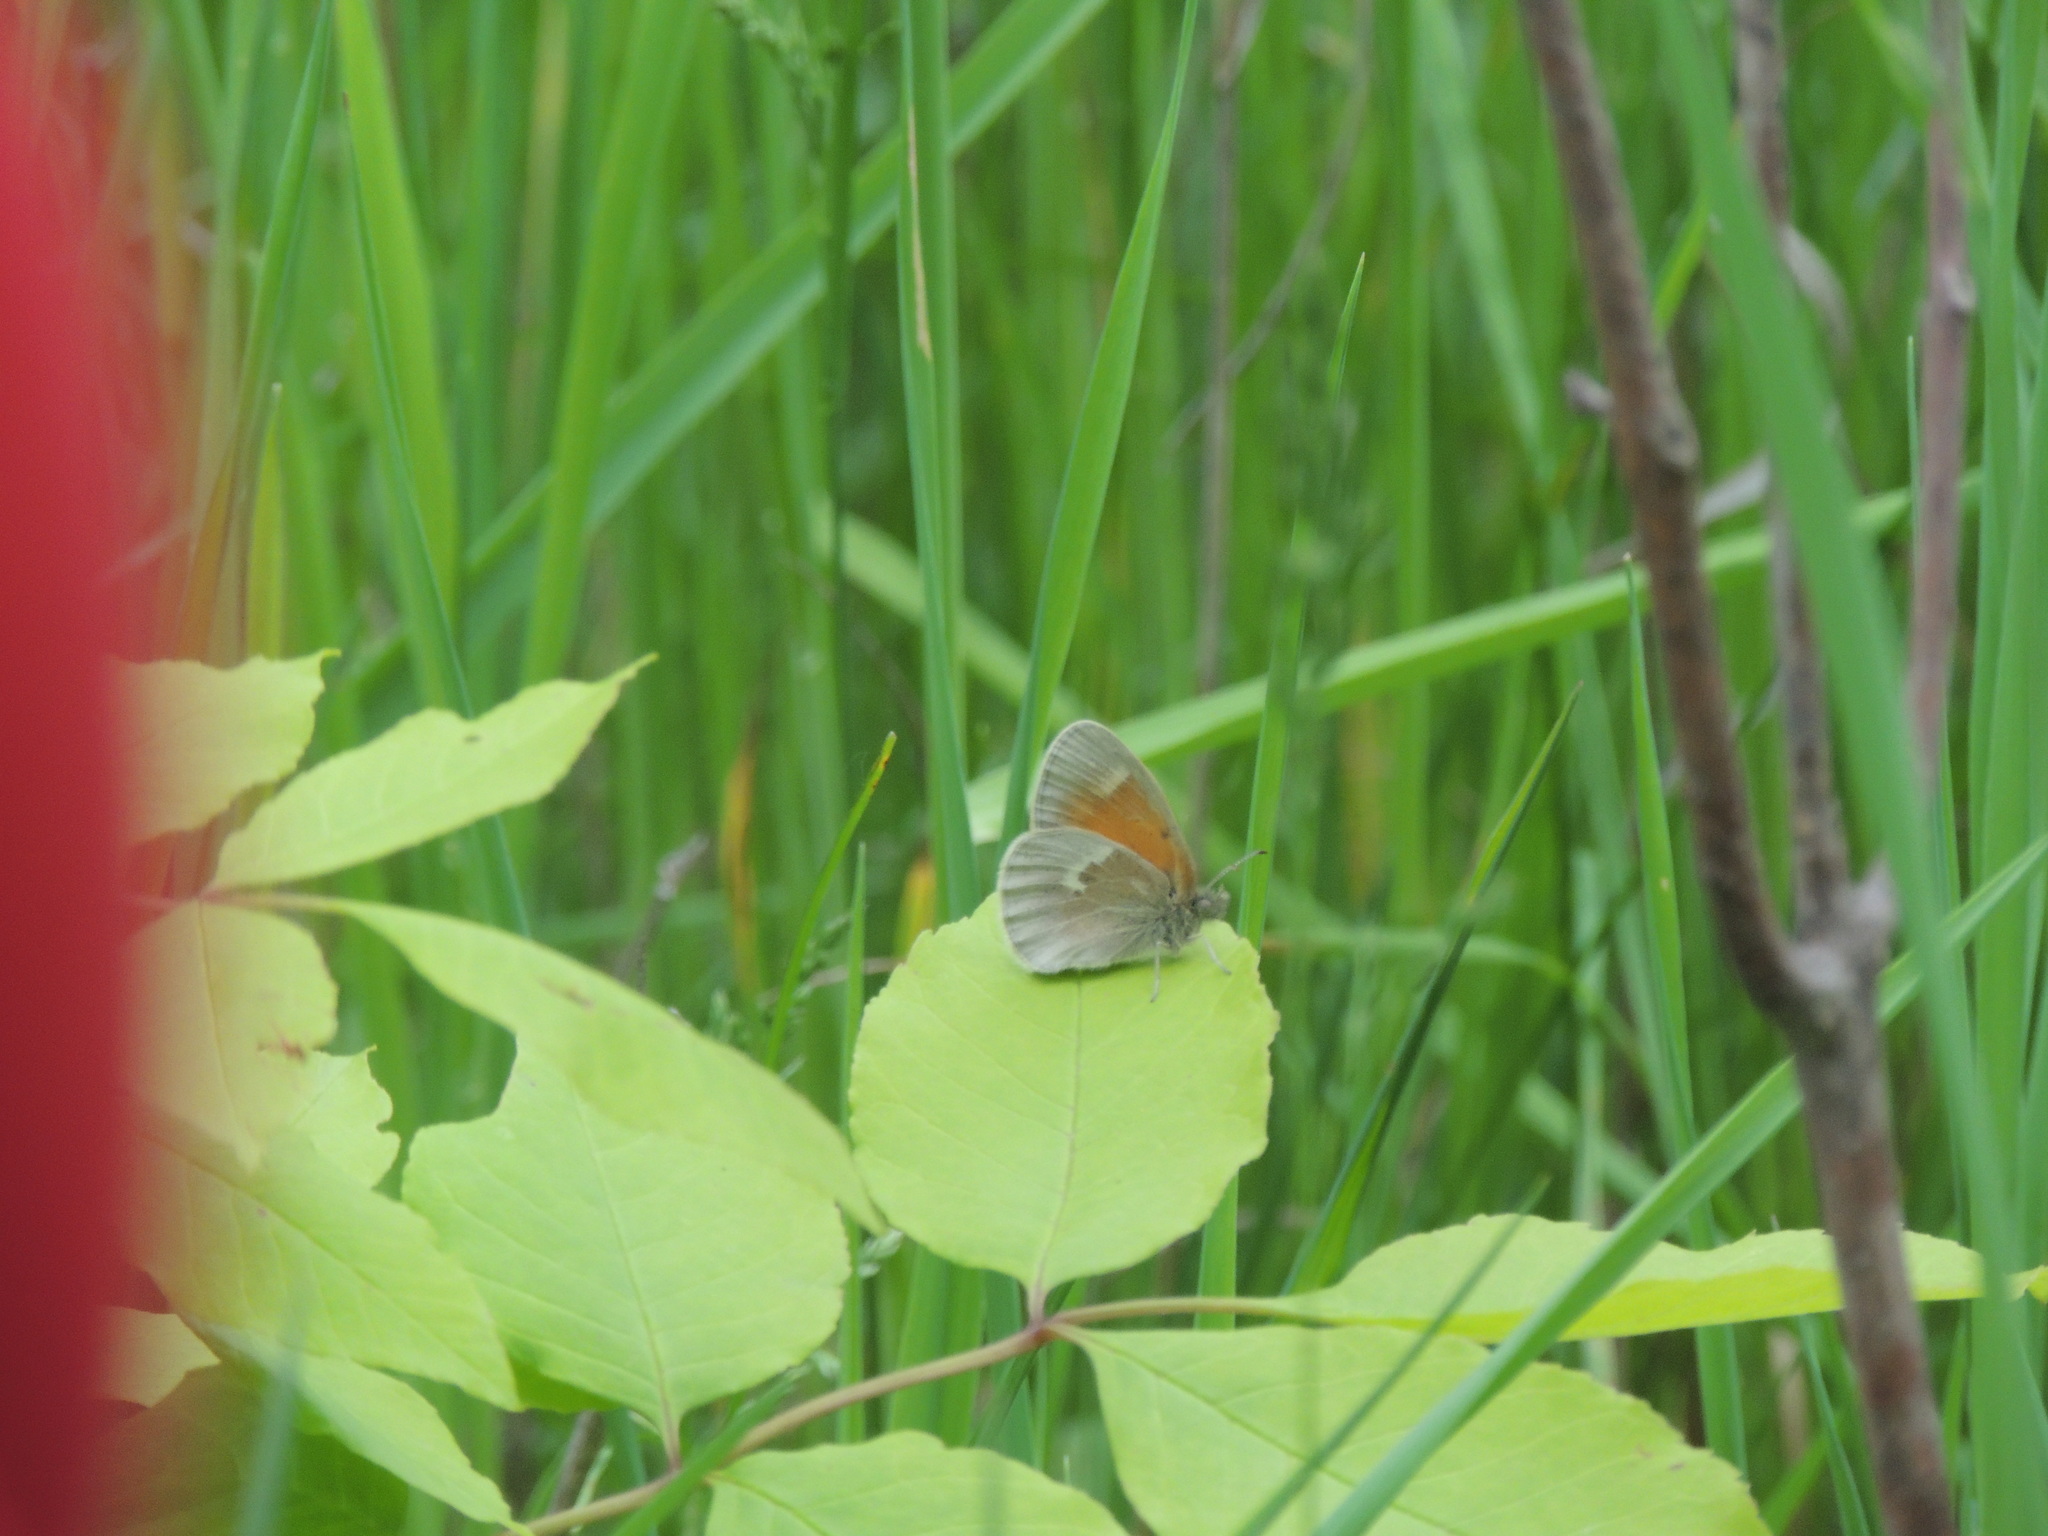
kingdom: Animalia
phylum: Arthropoda
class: Insecta
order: Lepidoptera
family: Nymphalidae
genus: Coenonympha
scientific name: Coenonympha california
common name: Common ringlet
